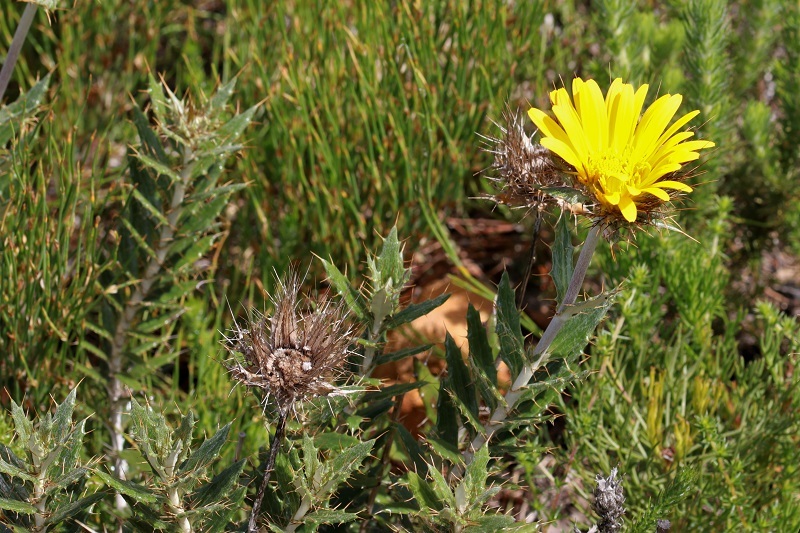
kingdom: Plantae
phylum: Tracheophyta
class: Magnoliopsida
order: Asterales
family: Asteraceae
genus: Berkheya
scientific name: Berkheya barbata
